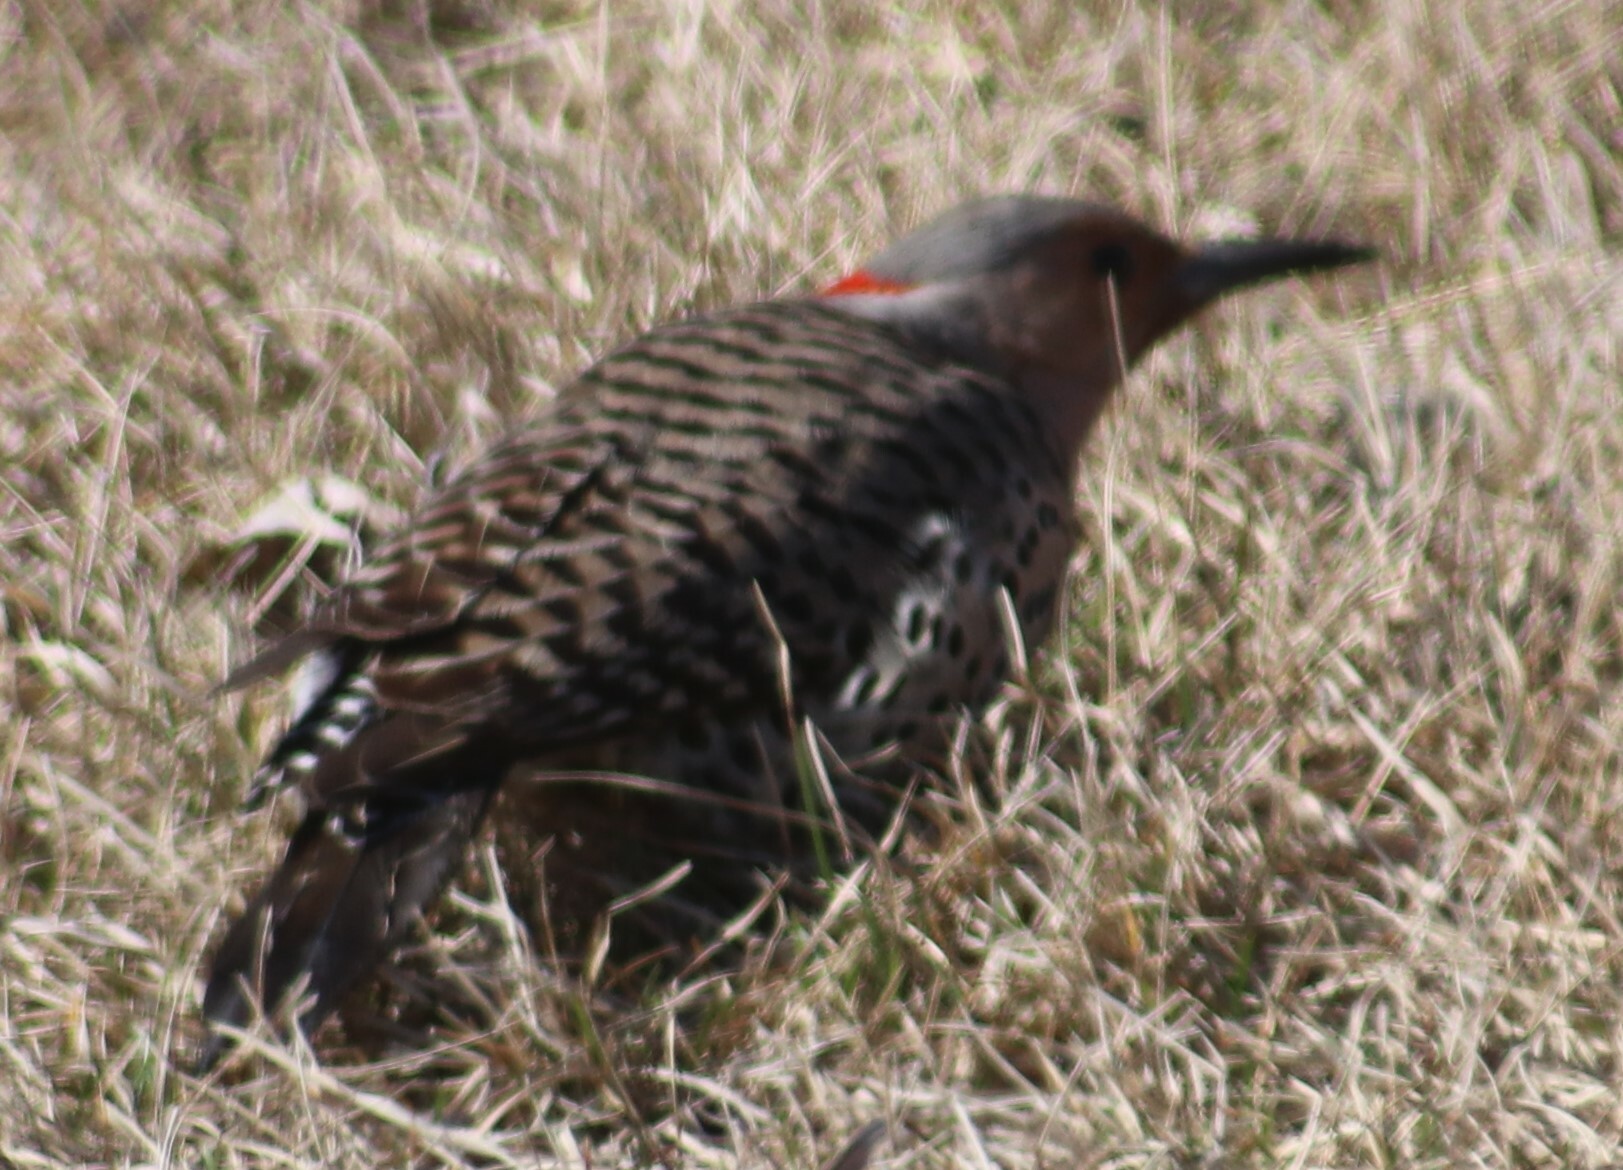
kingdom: Animalia
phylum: Chordata
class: Aves
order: Piciformes
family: Picidae
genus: Colaptes
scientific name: Colaptes auratus
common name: Northern flicker
